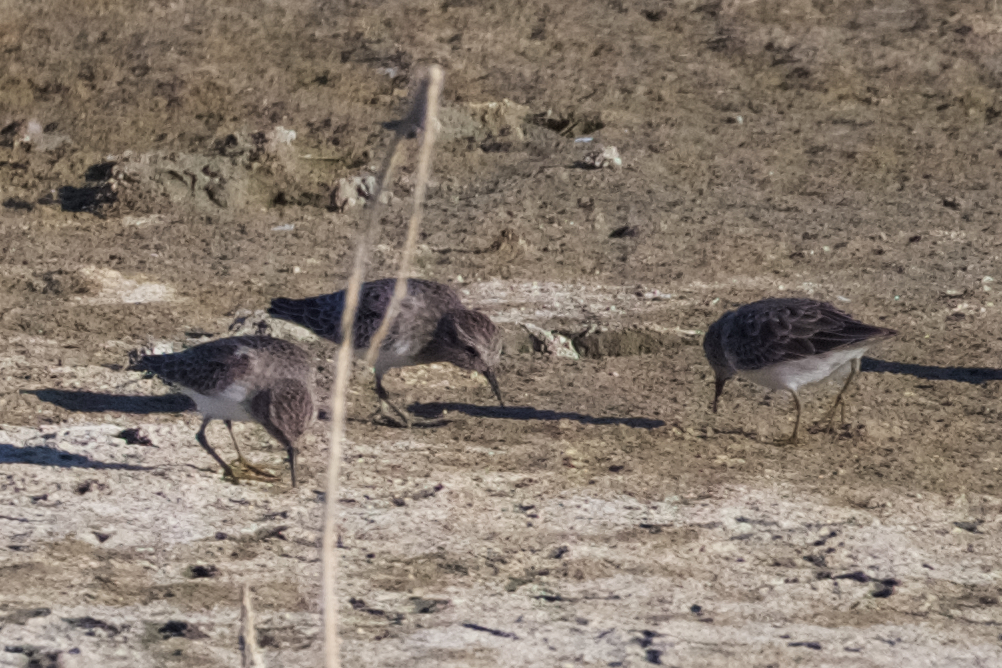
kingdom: Animalia
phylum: Chordata
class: Aves
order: Charadriiformes
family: Scolopacidae
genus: Calidris
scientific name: Calidris minutilla
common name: Least sandpiper
